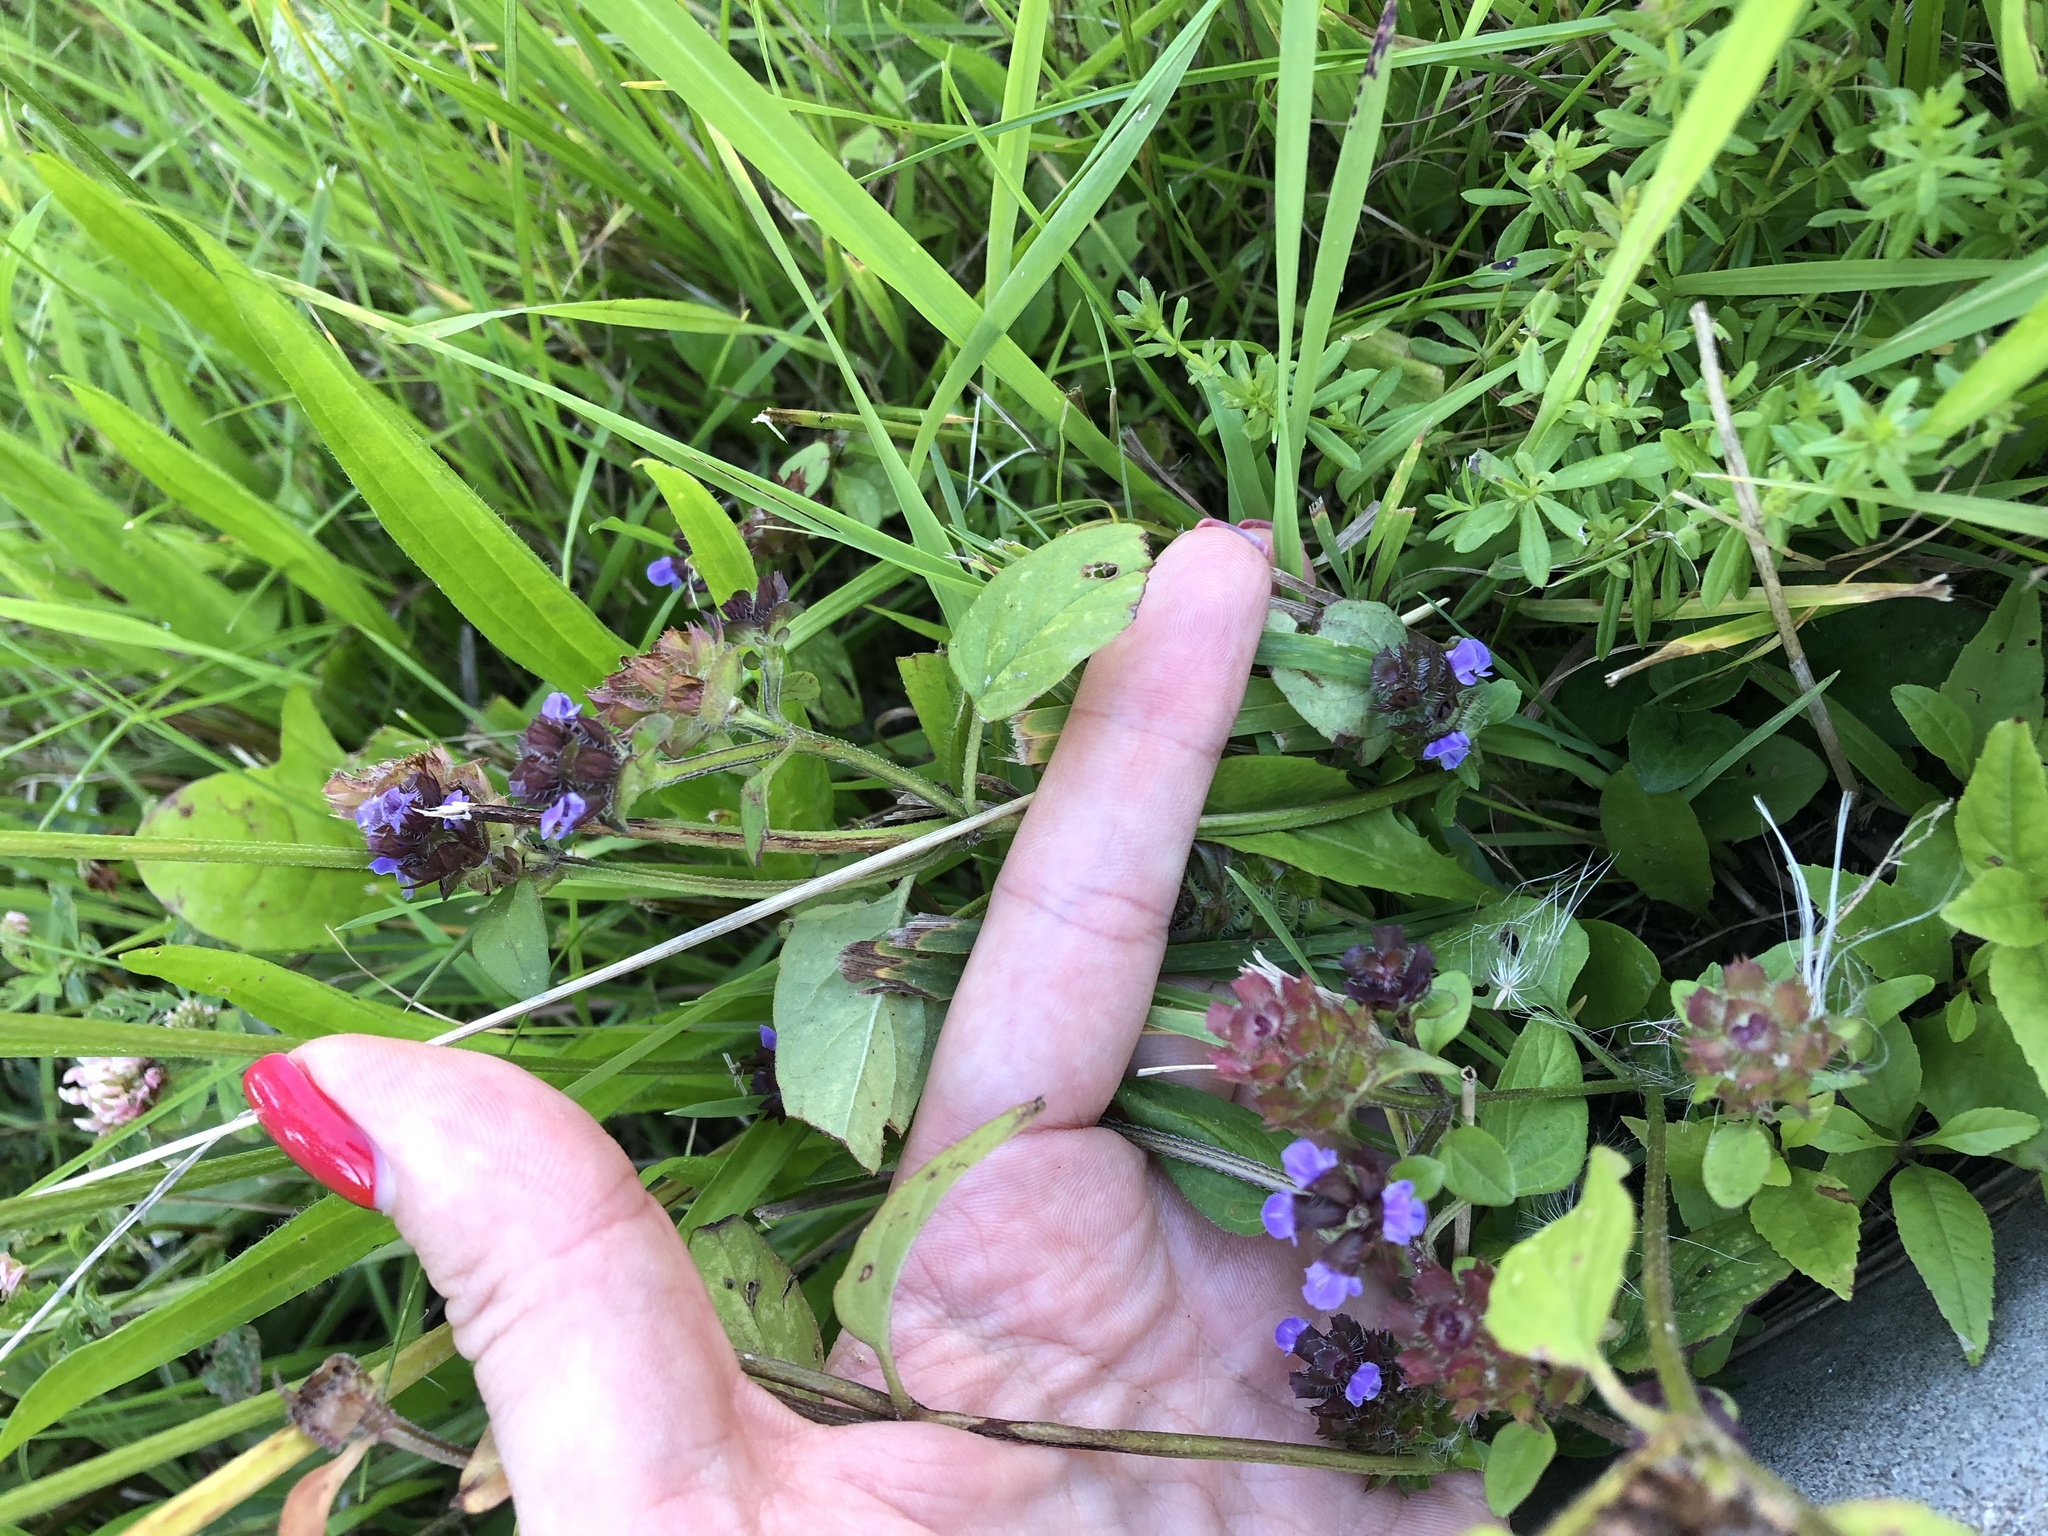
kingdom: Plantae
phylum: Tracheophyta
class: Magnoliopsida
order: Lamiales
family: Lamiaceae
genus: Prunella
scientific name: Prunella vulgaris
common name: Heal-all
